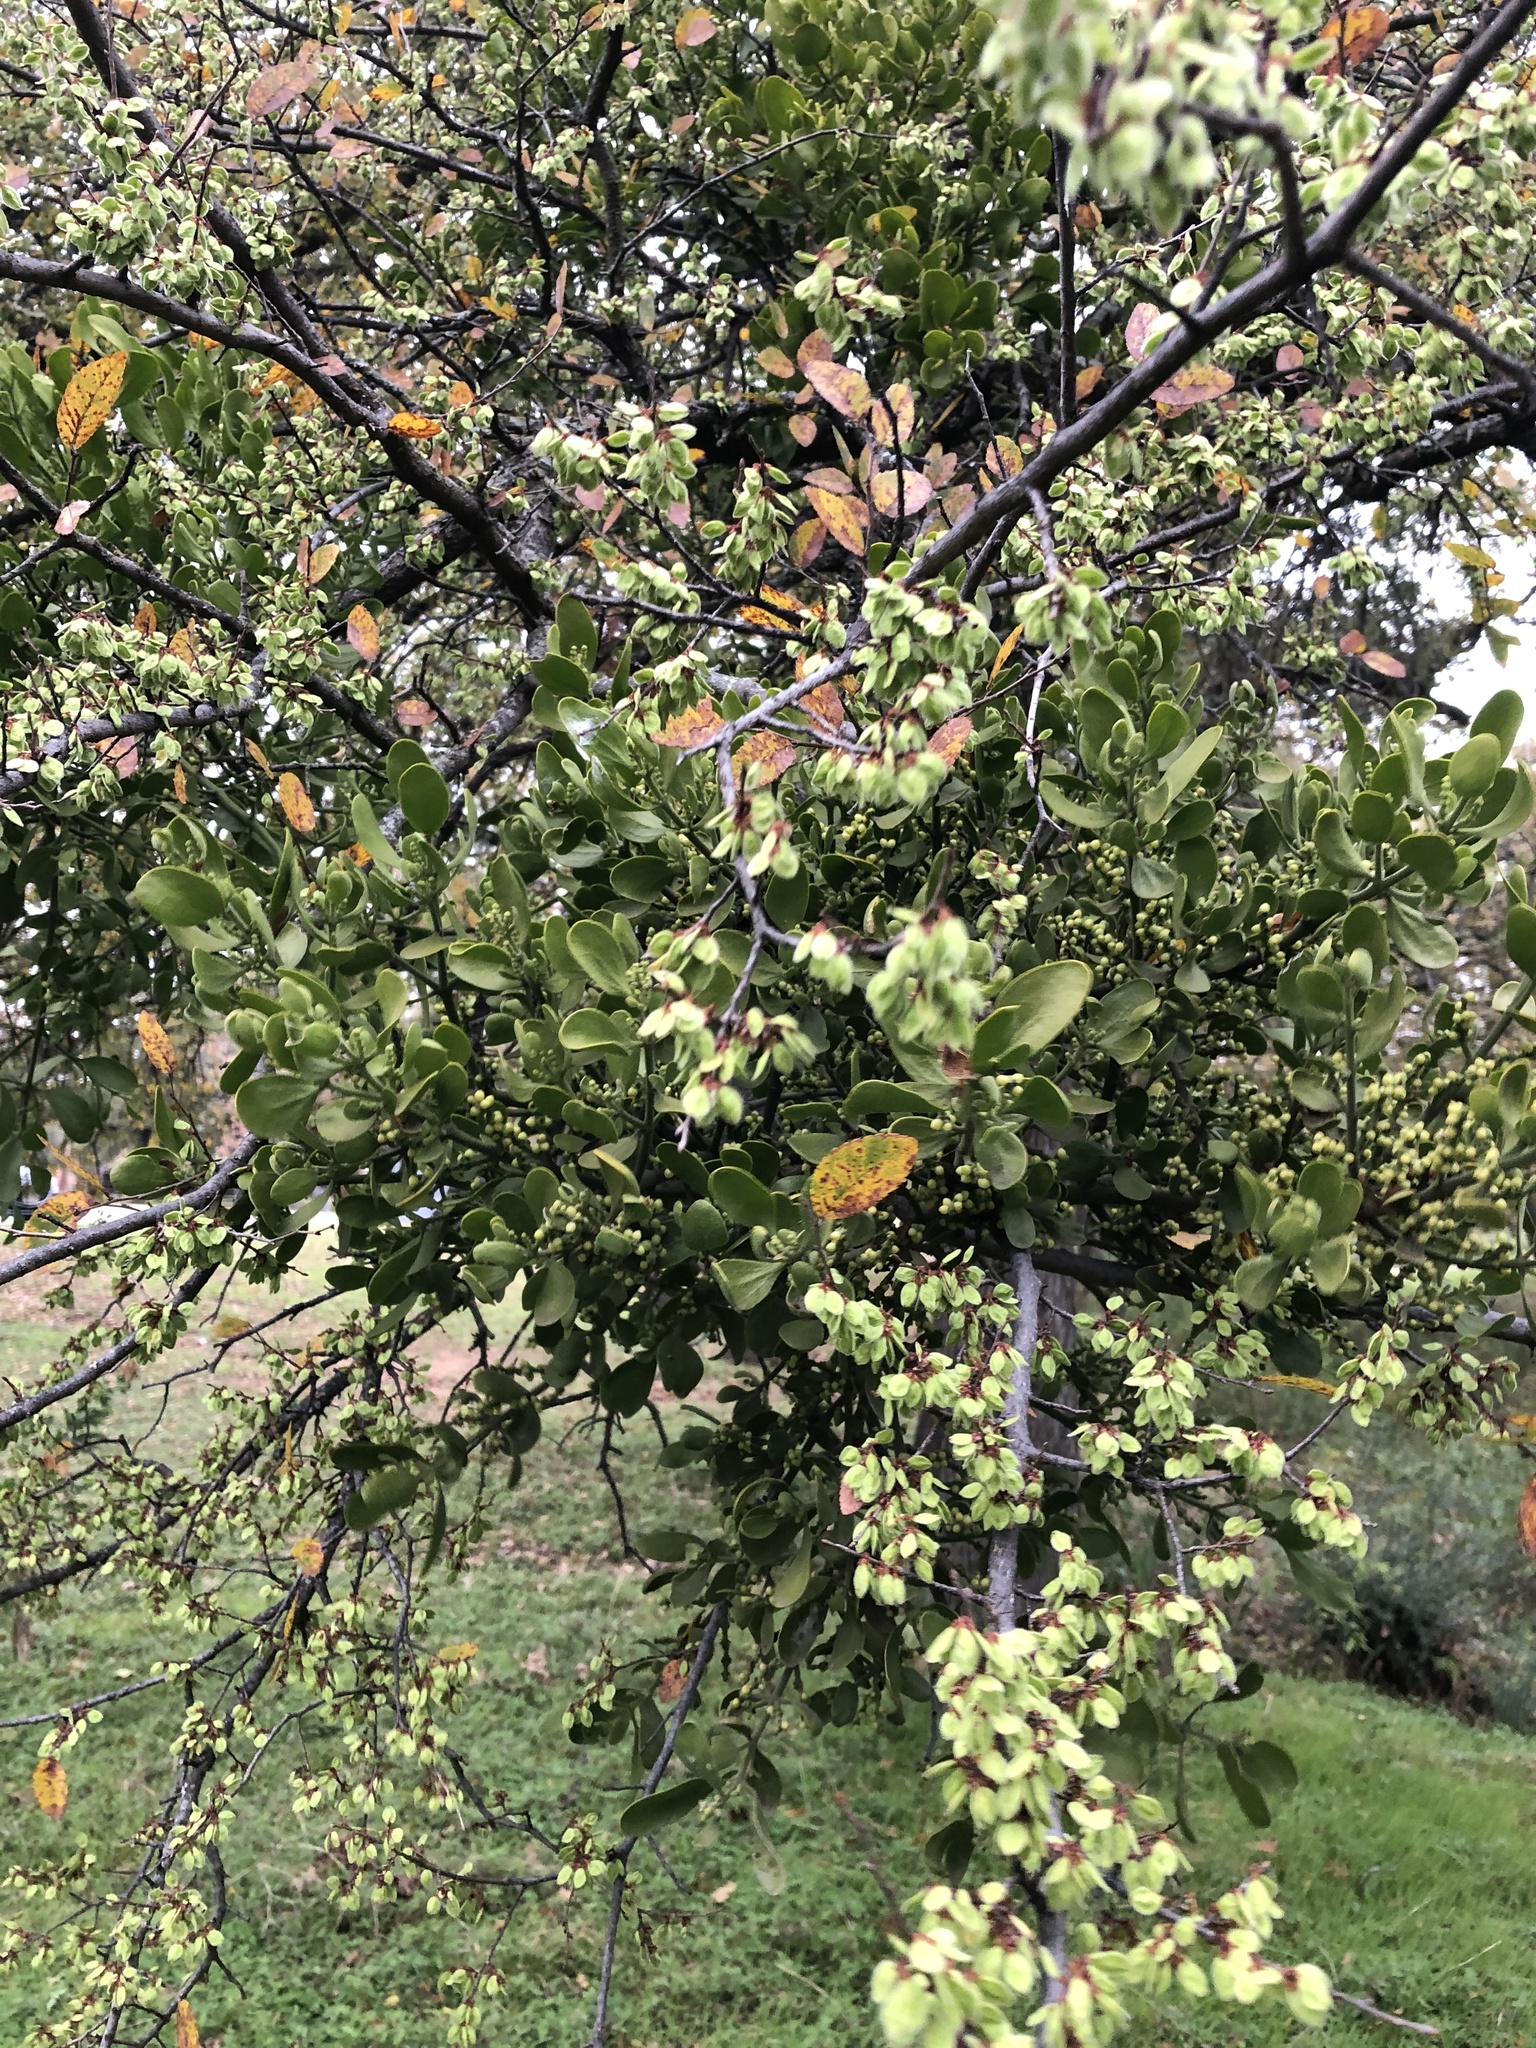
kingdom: Plantae
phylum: Tracheophyta
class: Magnoliopsida
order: Santalales
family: Viscaceae
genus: Phoradendron
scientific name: Phoradendron leucarpum
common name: Pacific mistletoe
